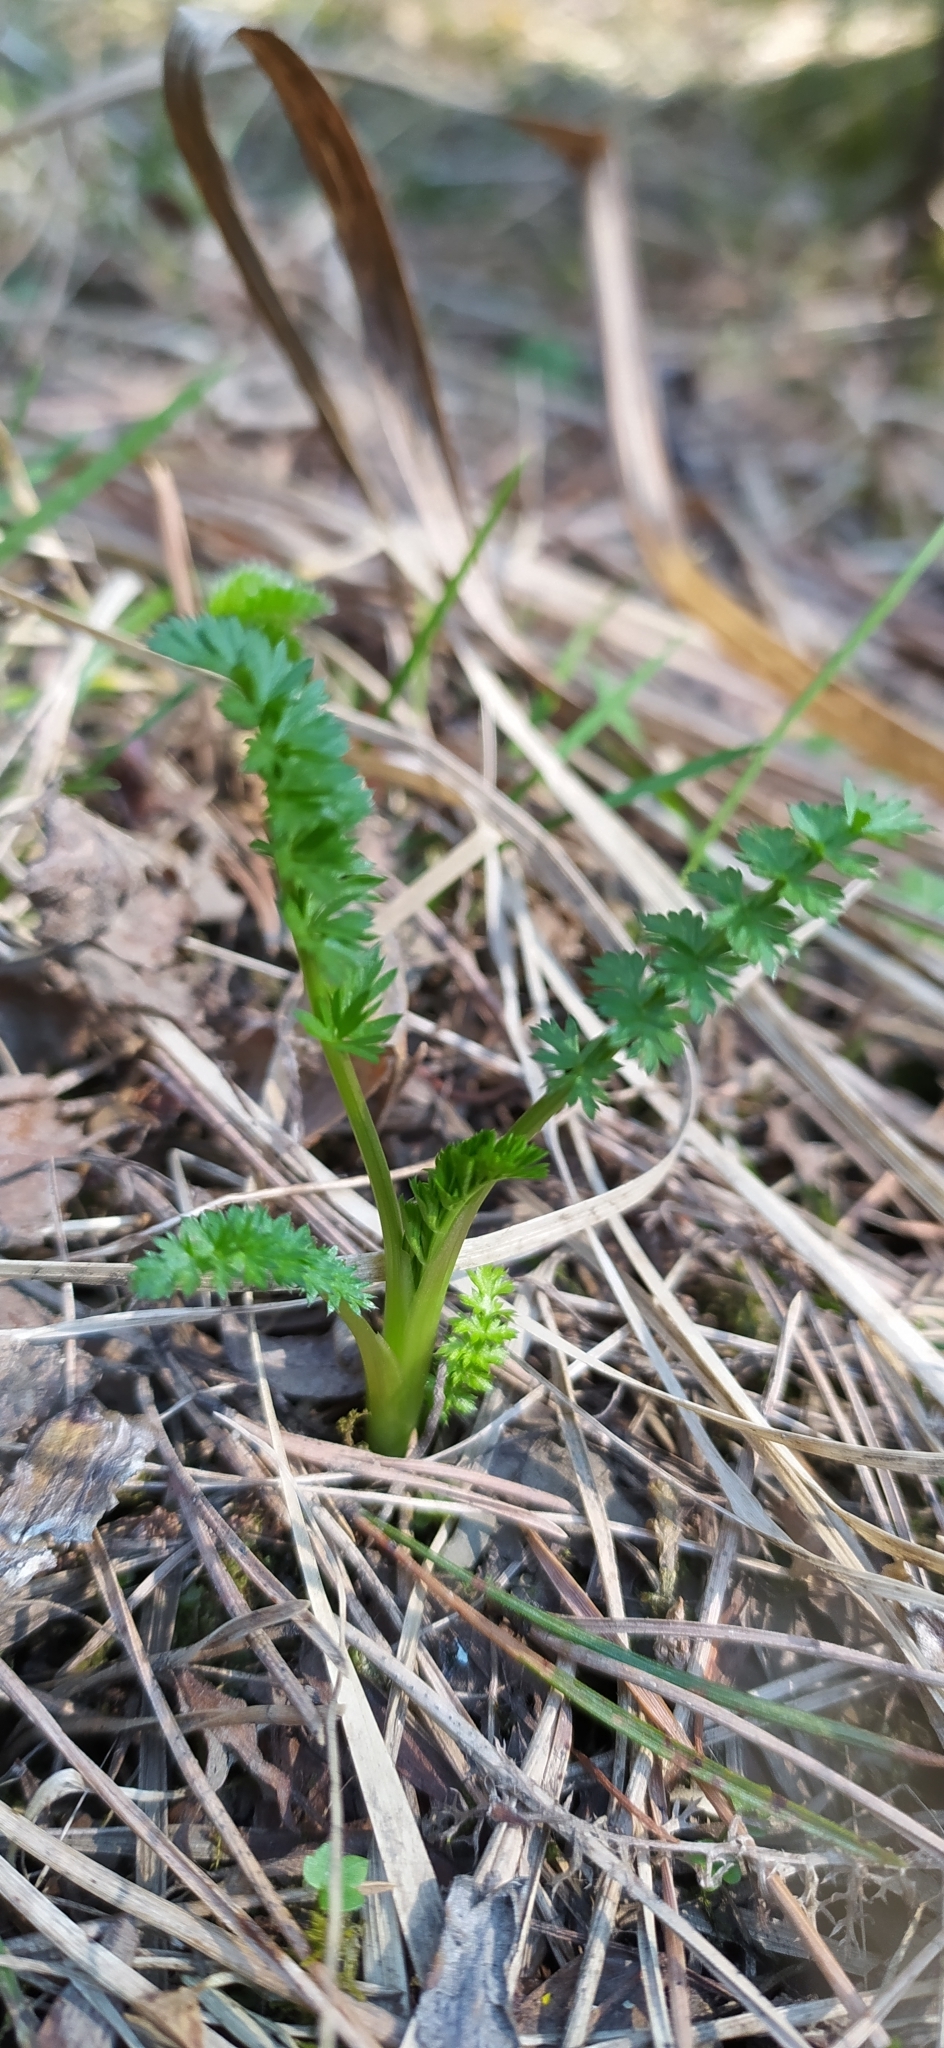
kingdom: Plantae
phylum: Tracheophyta
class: Magnoliopsida
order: Apiales
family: Apiaceae
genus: Carum
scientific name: Carum carvi
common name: Caraway
